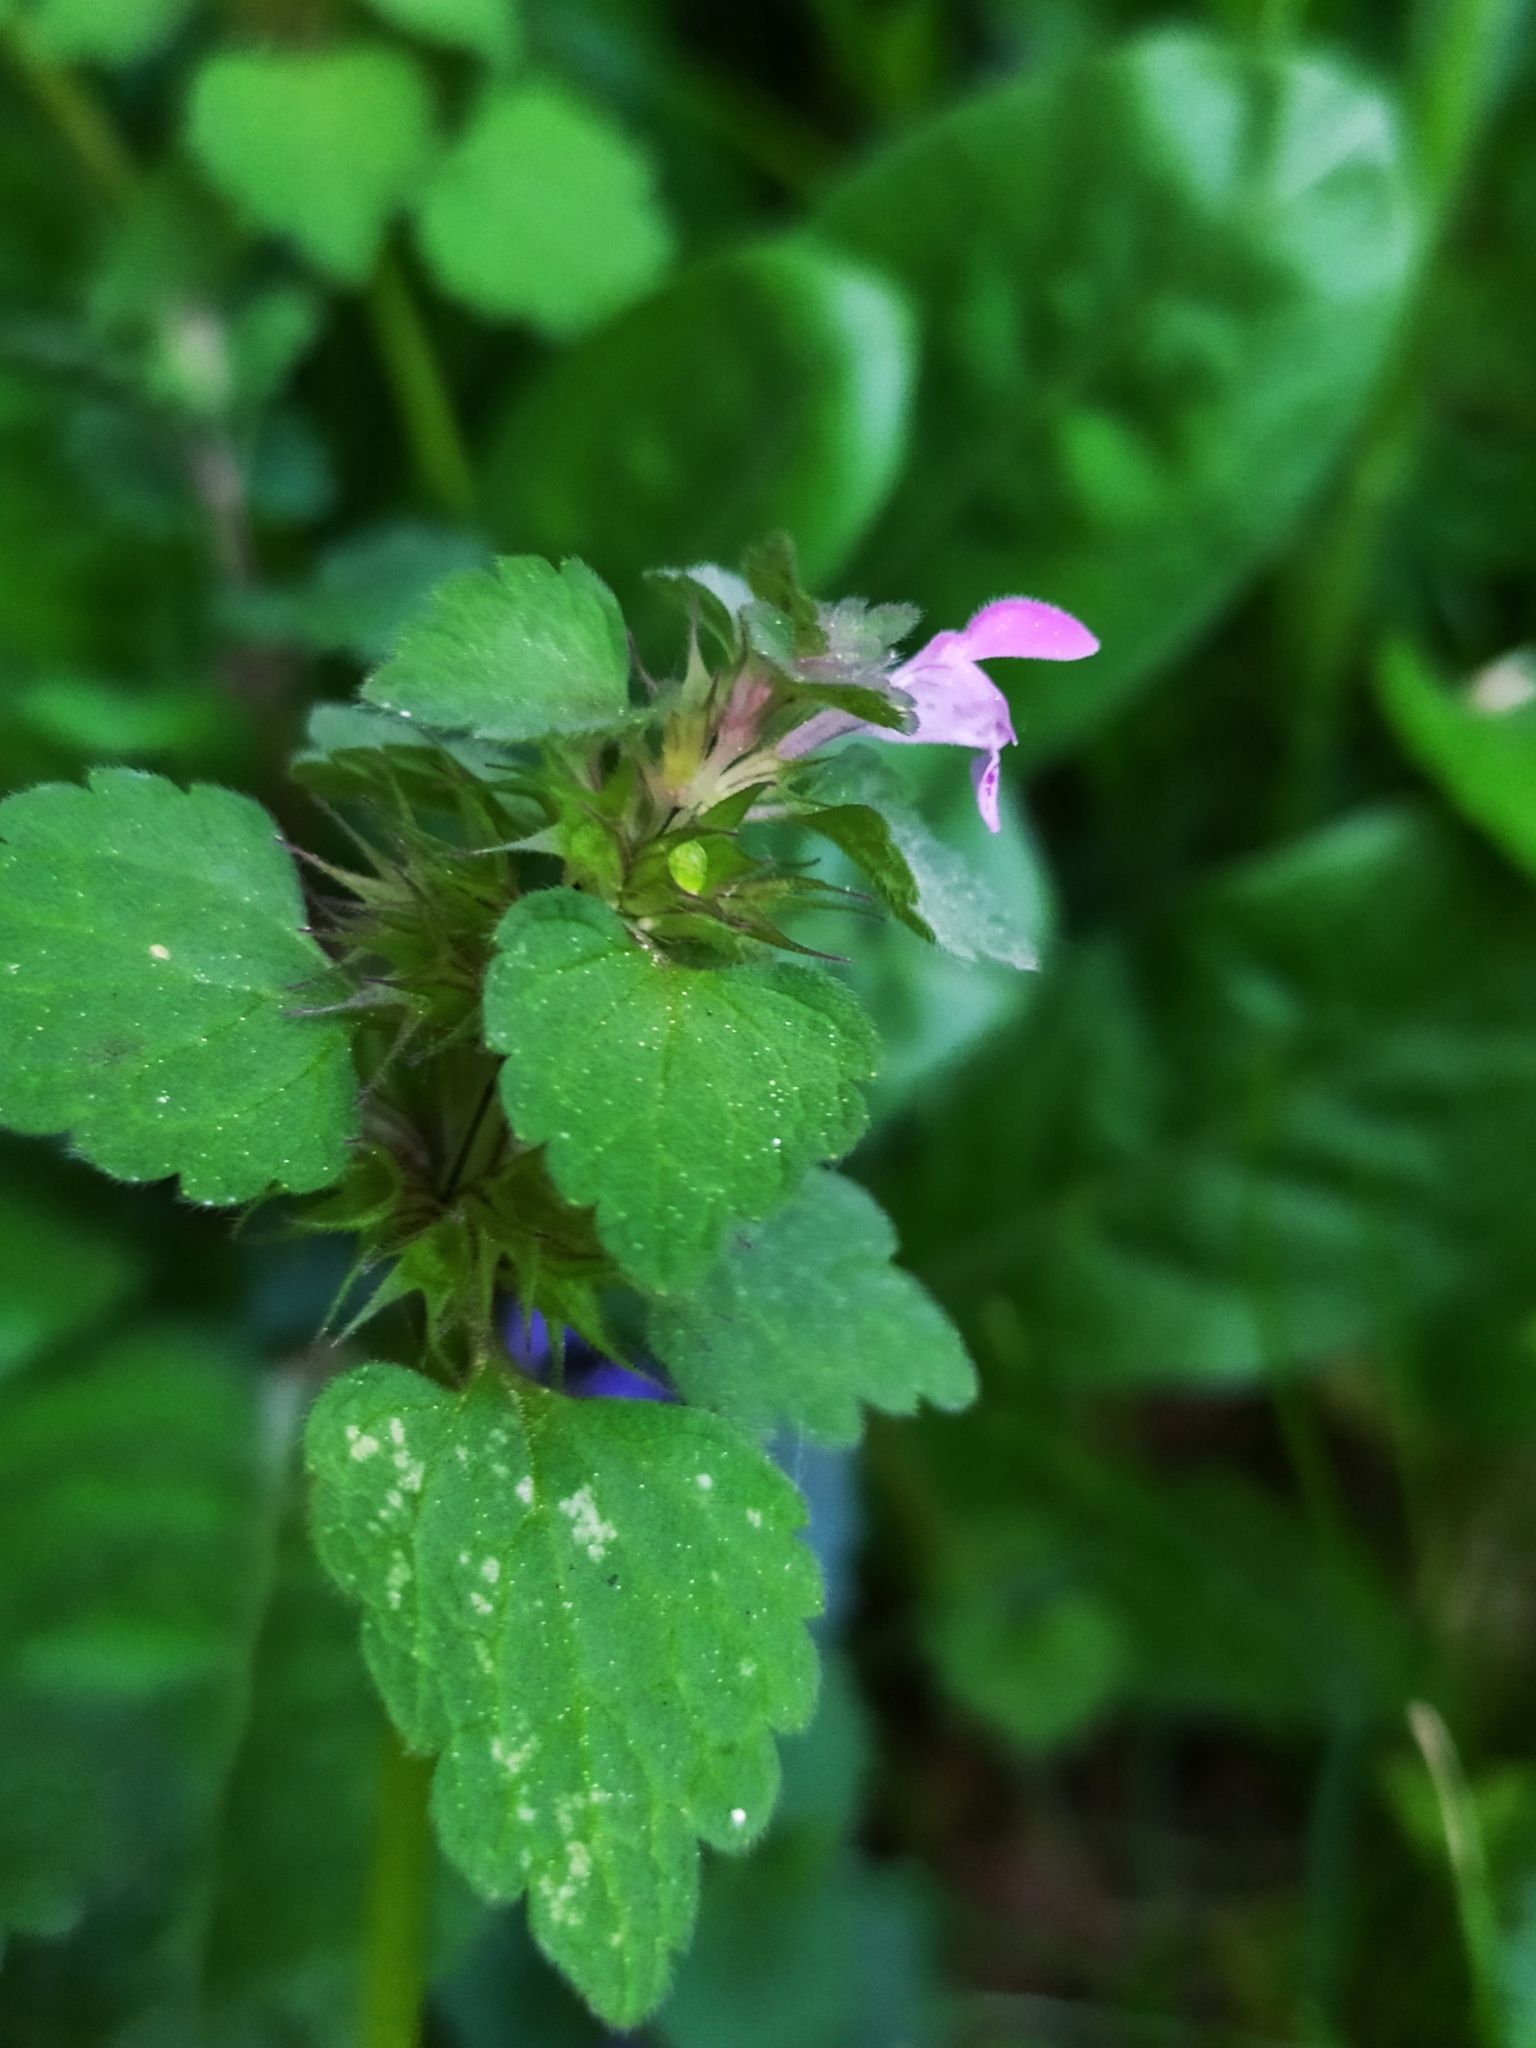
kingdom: Plantae
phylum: Tracheophyta
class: Magnoliopsida
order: Lamiales
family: Lamiaceae
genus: Lamium
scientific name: Lamium purpureum
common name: Red dead-nettle
